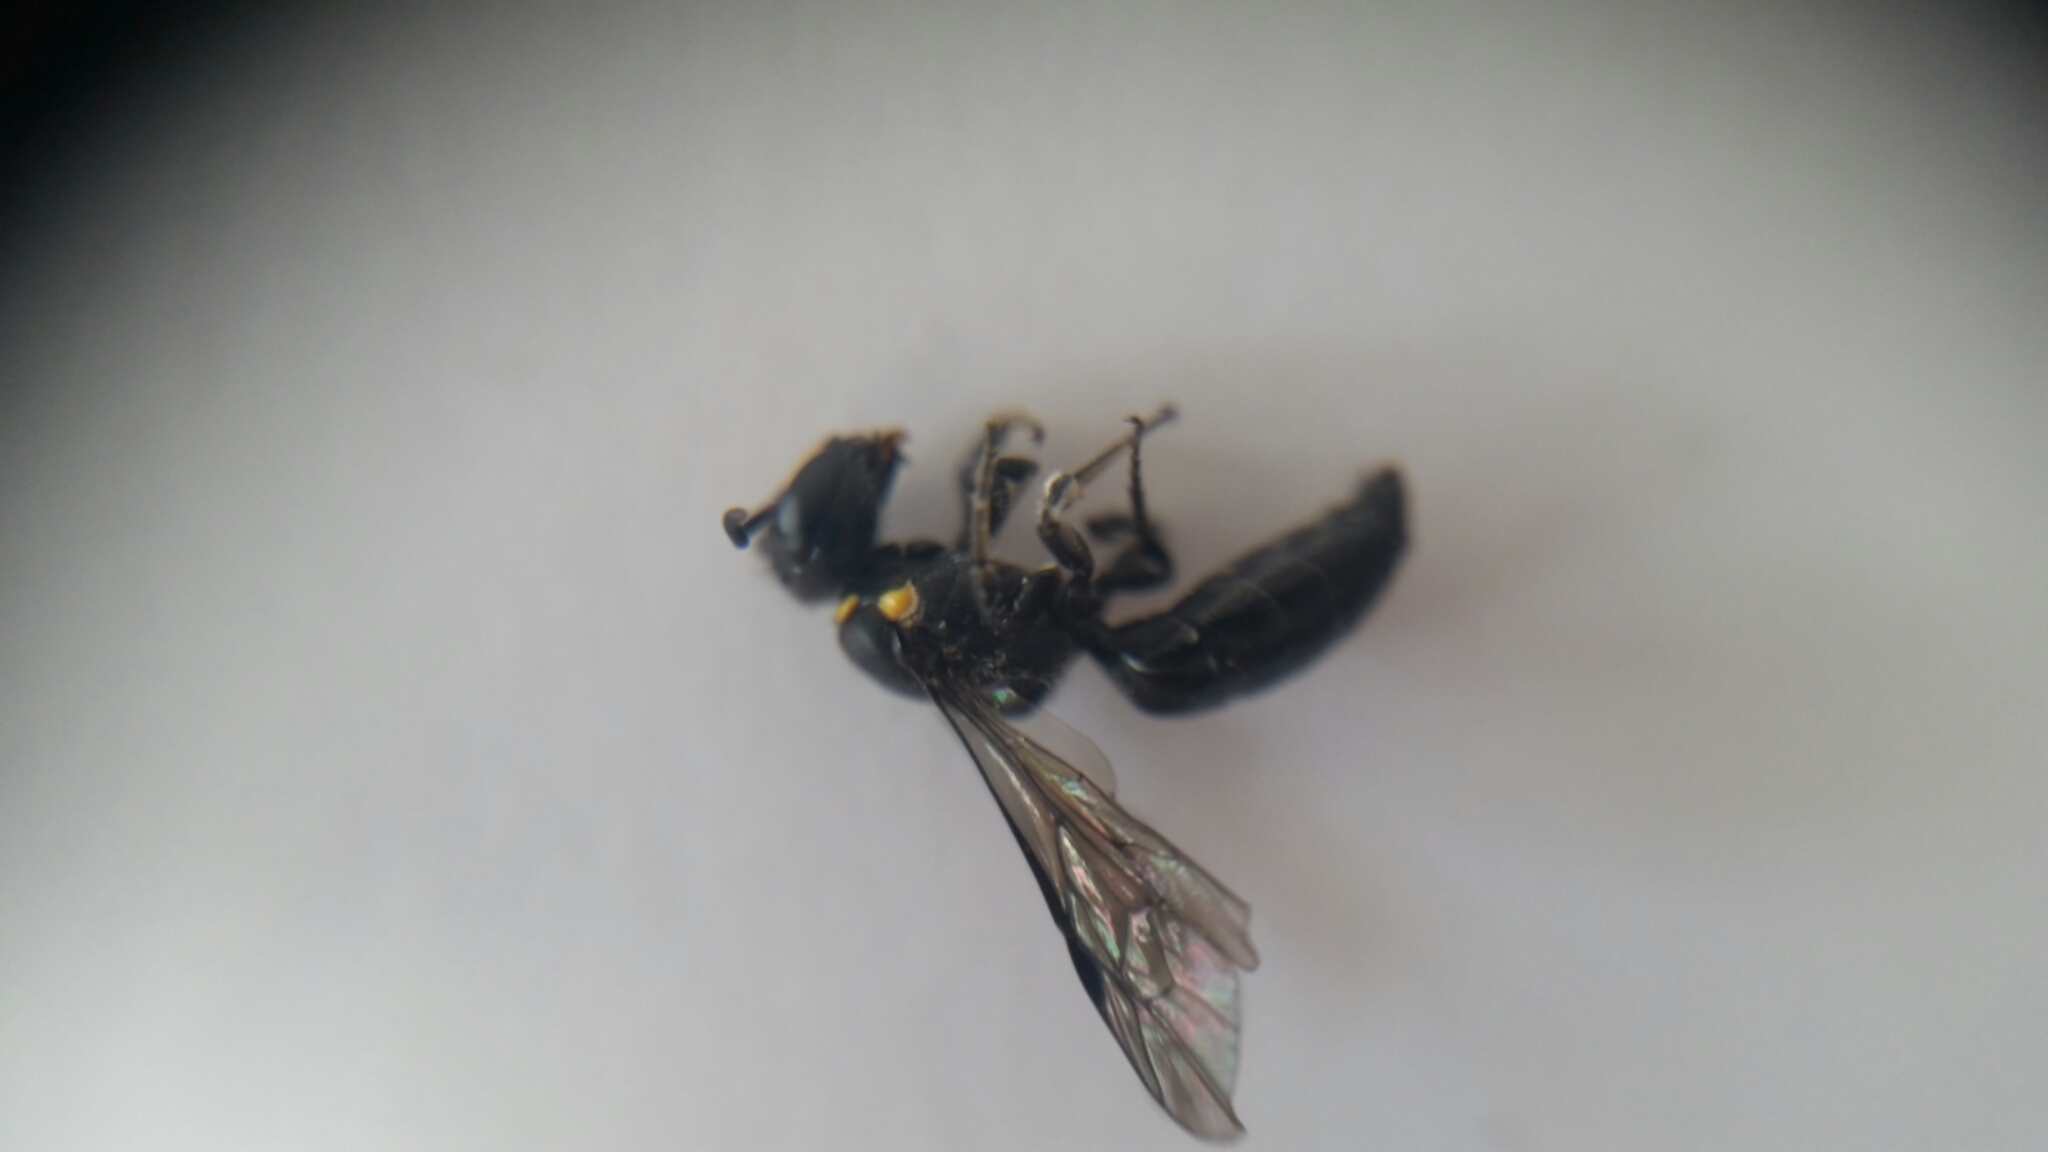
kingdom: Animalia
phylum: Arthropoda
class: Insecta
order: Hymenoptera
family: Colletidae
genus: Hylaeus
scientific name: Hylaeus relegatus
